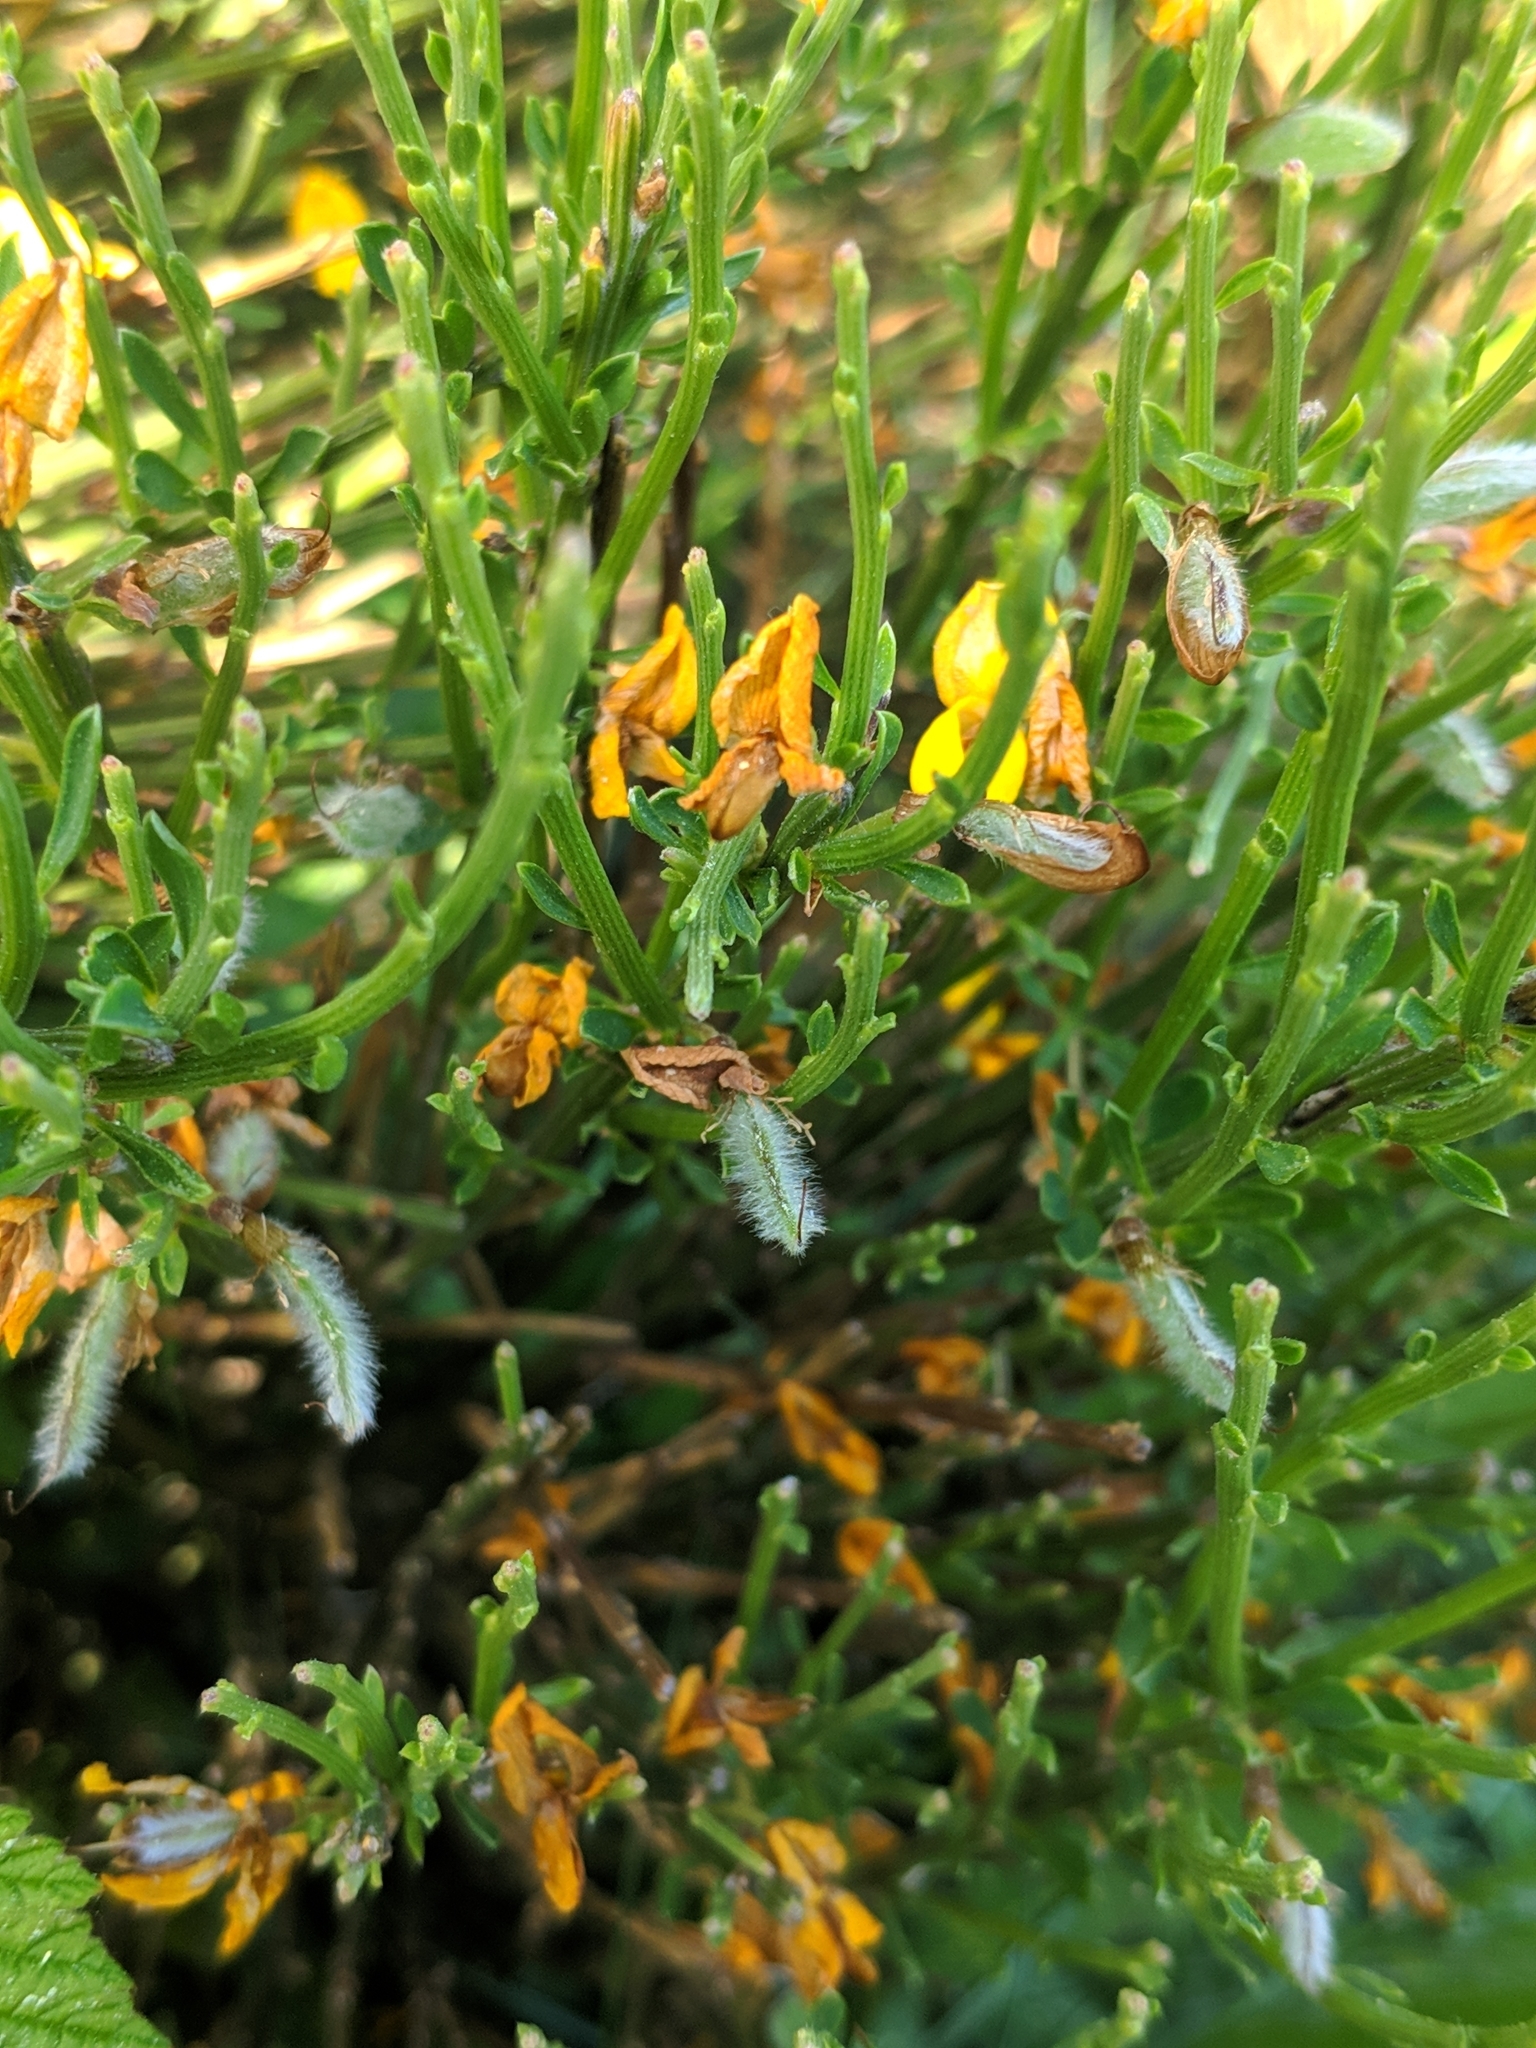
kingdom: Plantae
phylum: Tracheophyta
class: Magnoliopsida
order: Fabales
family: Fabaceae
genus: Cytisus
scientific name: Cytisus oromediterraneus
